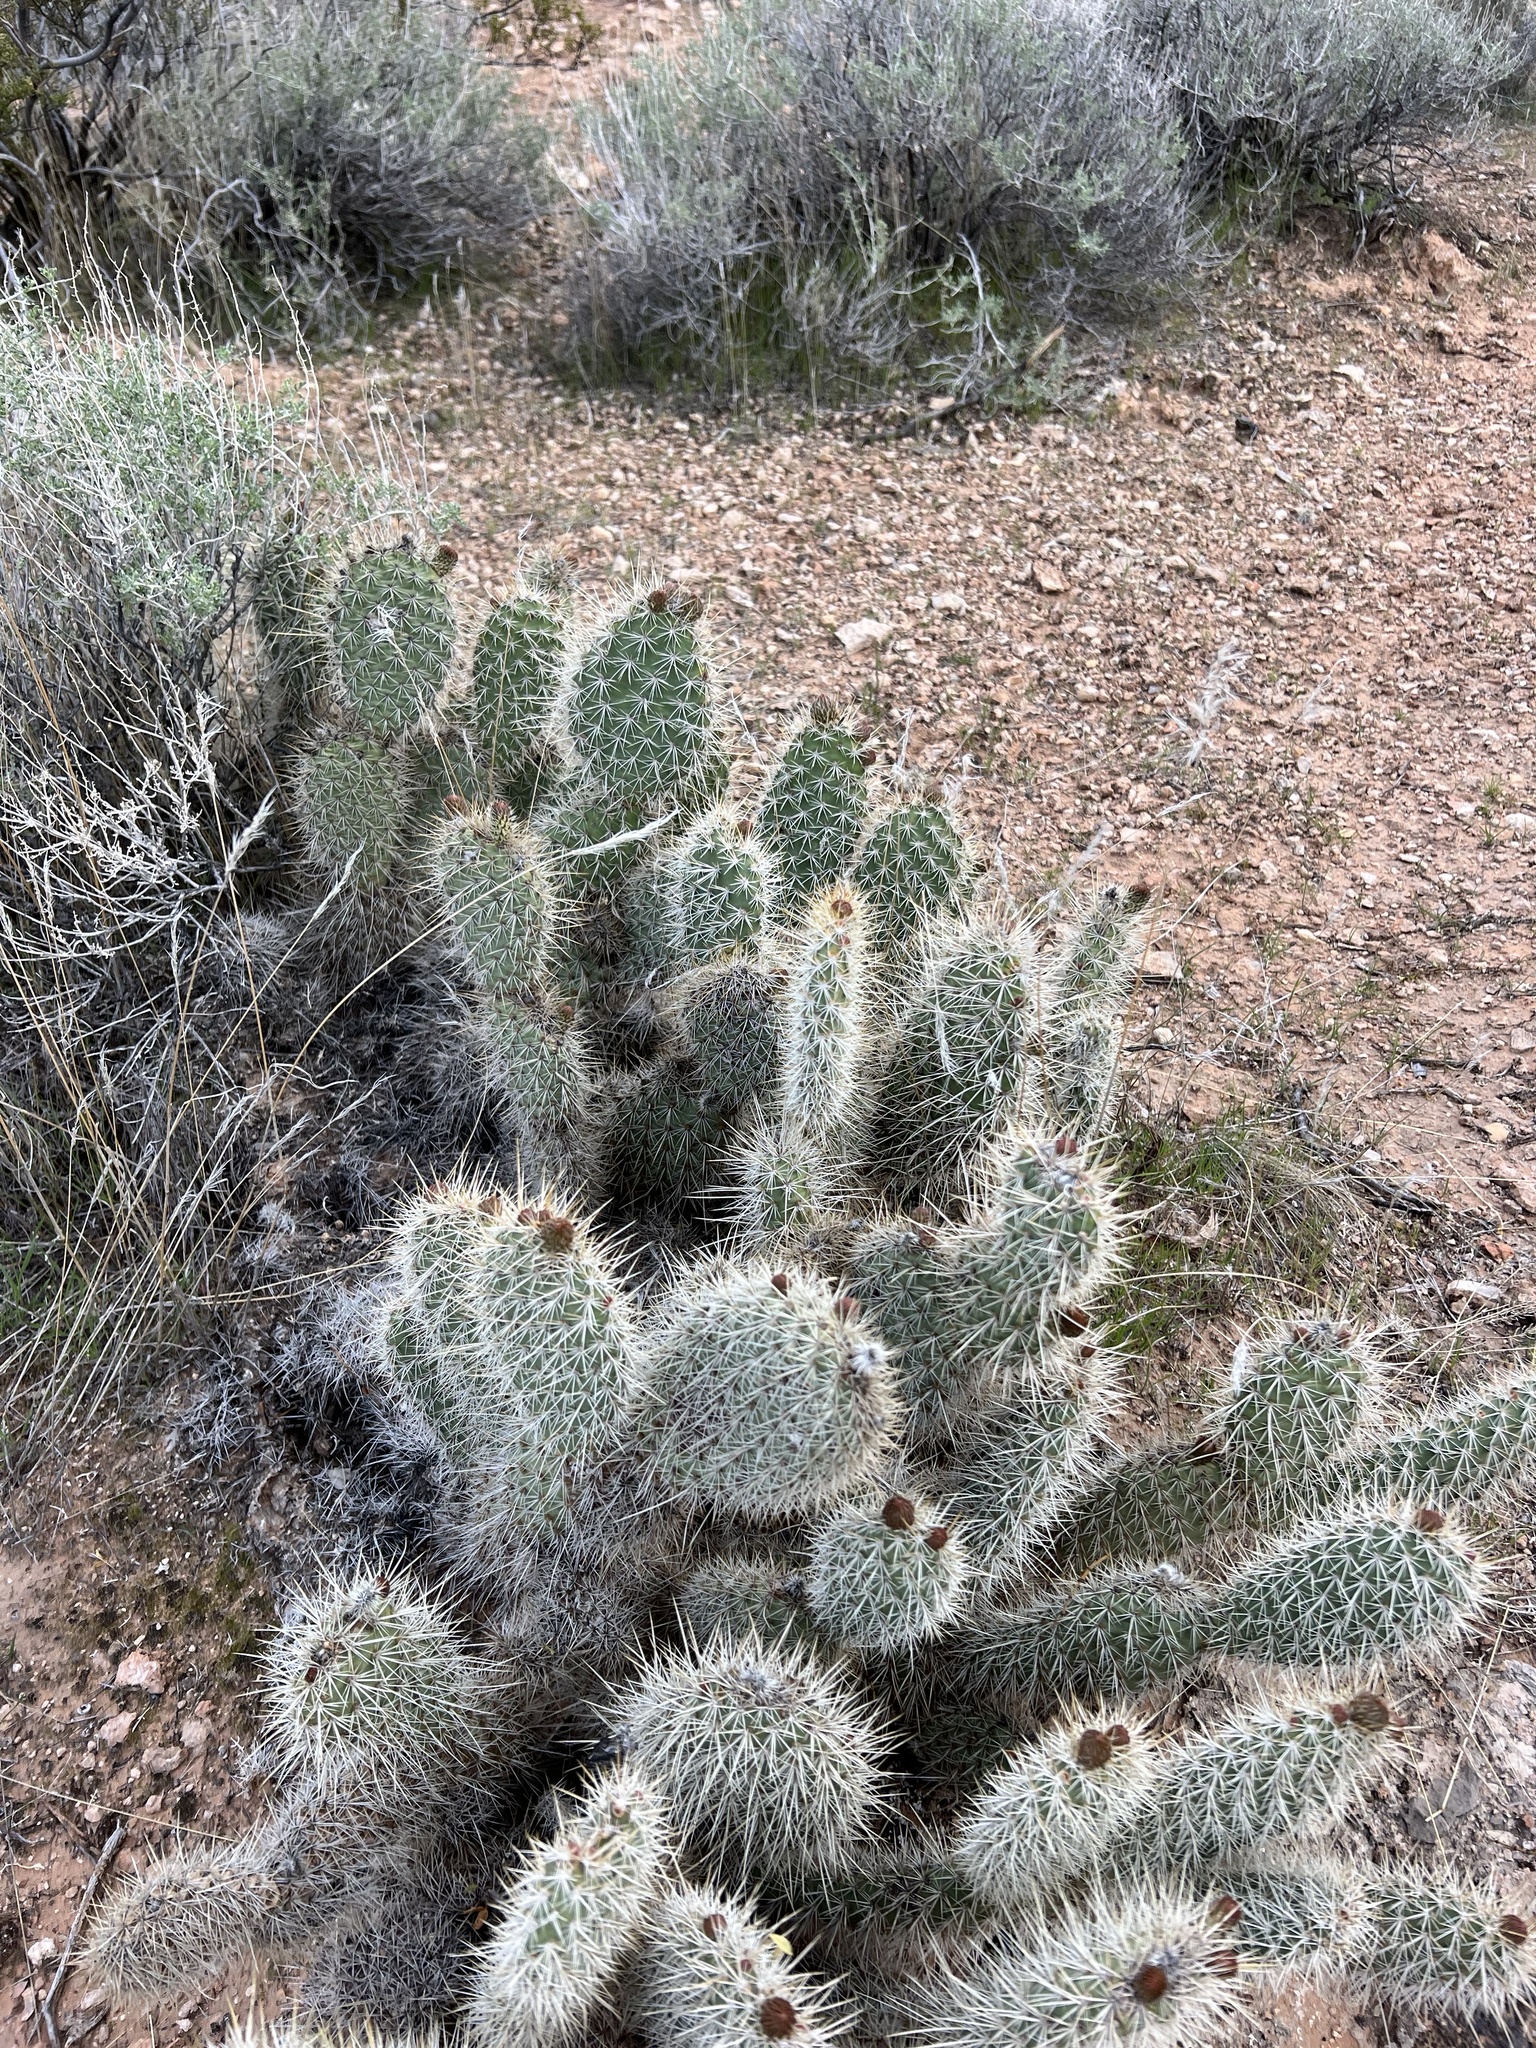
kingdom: Plantae
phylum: Tracheophyta
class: Magnoliopsida
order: Caryophyllales
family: Cactaceae
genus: Opuntia
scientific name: Opuntia polyacantha
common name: Plains prickly-pear
